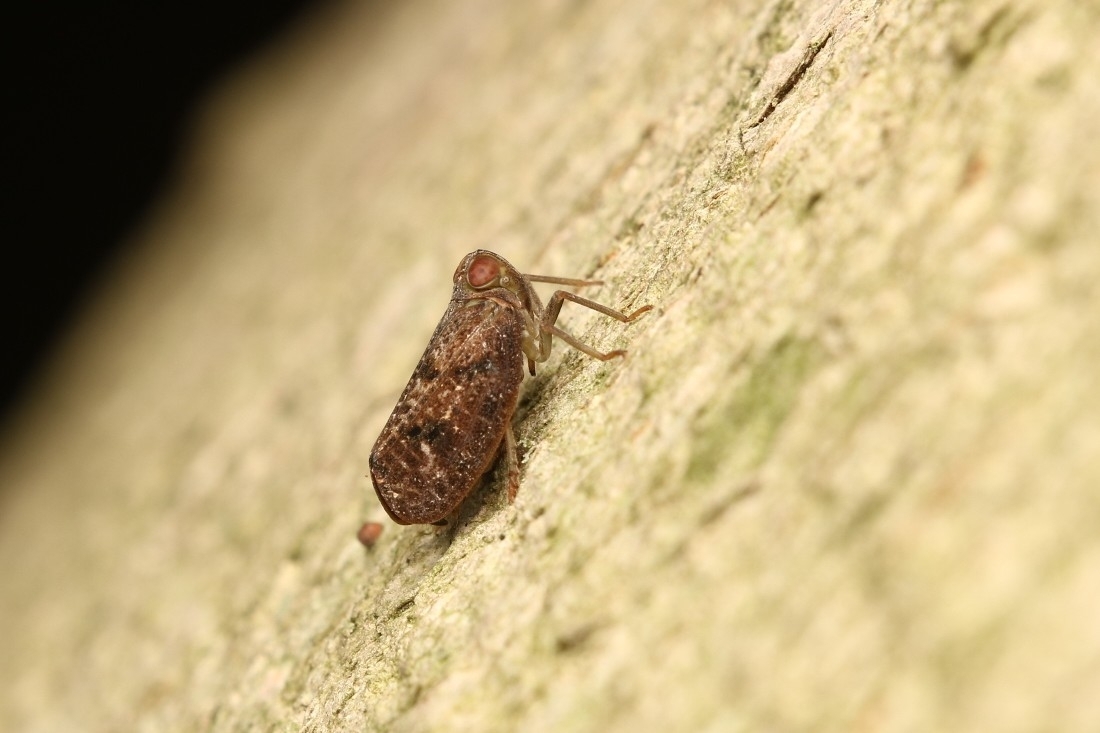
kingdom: Animalia
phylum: Arthropoda
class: Insecta
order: Hemiptera
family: Issidae
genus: Thionia
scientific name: Thionia bullata
